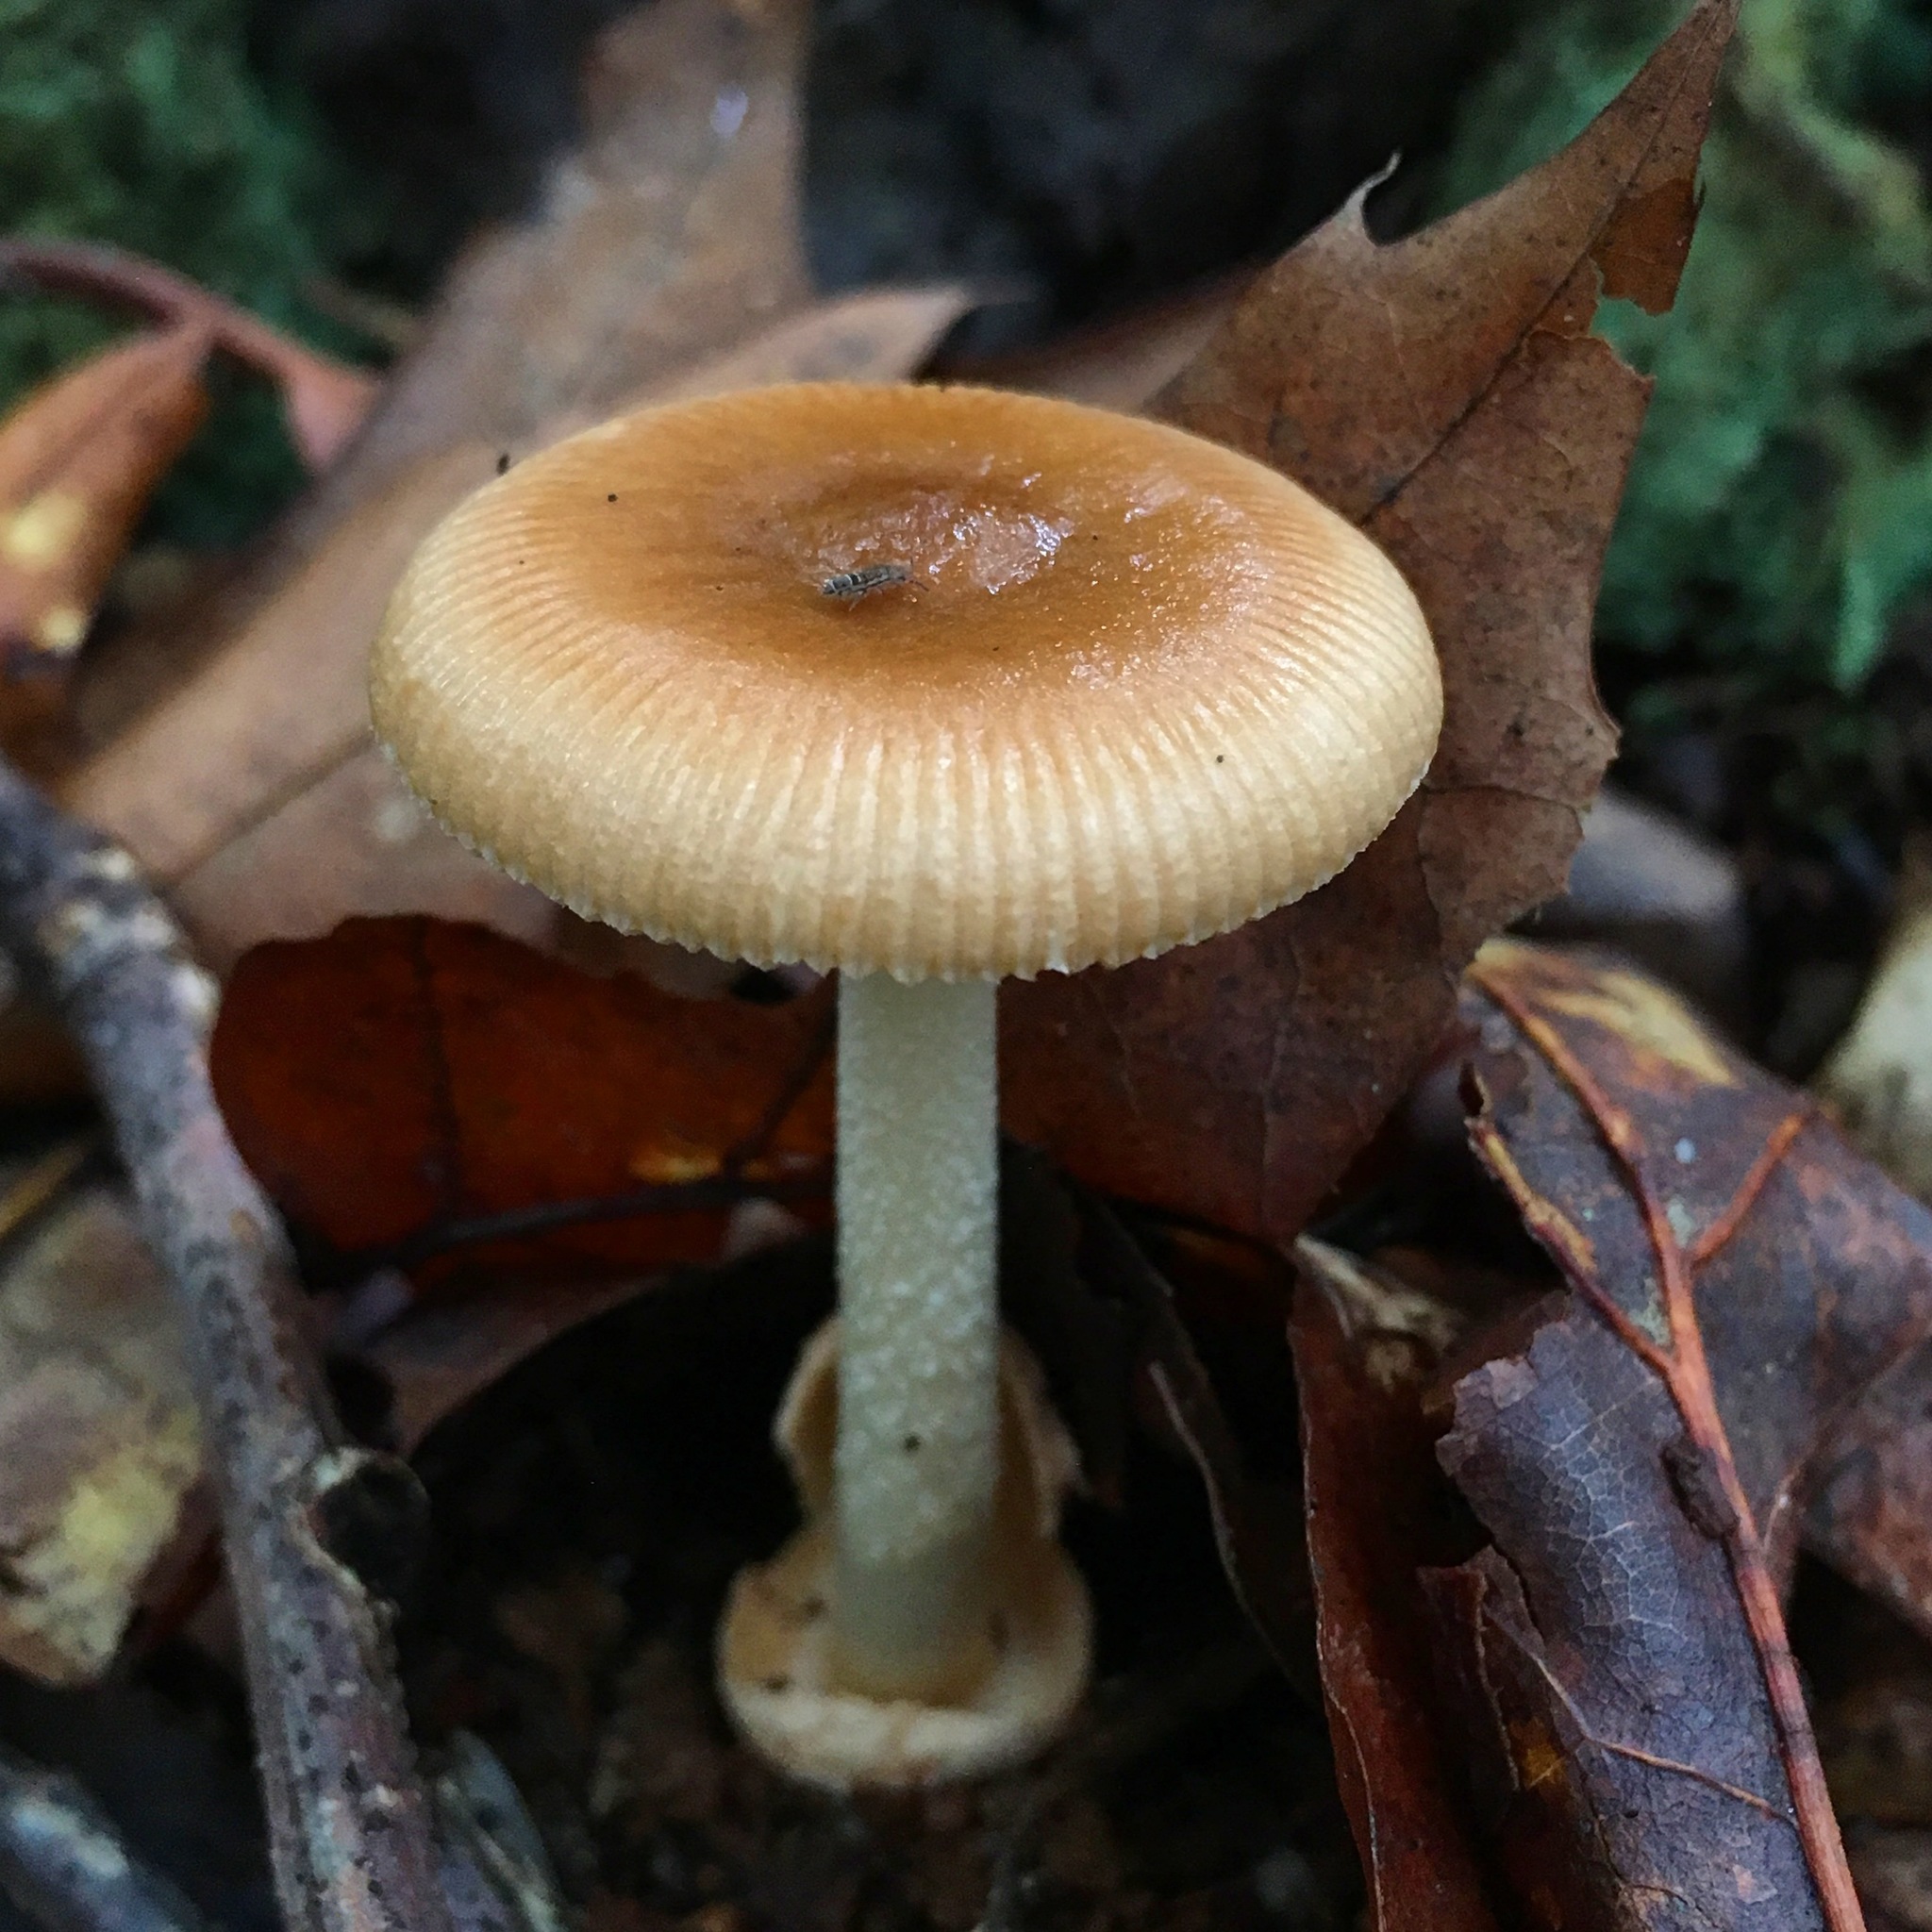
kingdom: Fungi
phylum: Basidiomycota
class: Agaricomycetes
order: Agaricales
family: Amanitaceae
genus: Amanita
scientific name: Amanita fulva
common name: Tawny grisette
